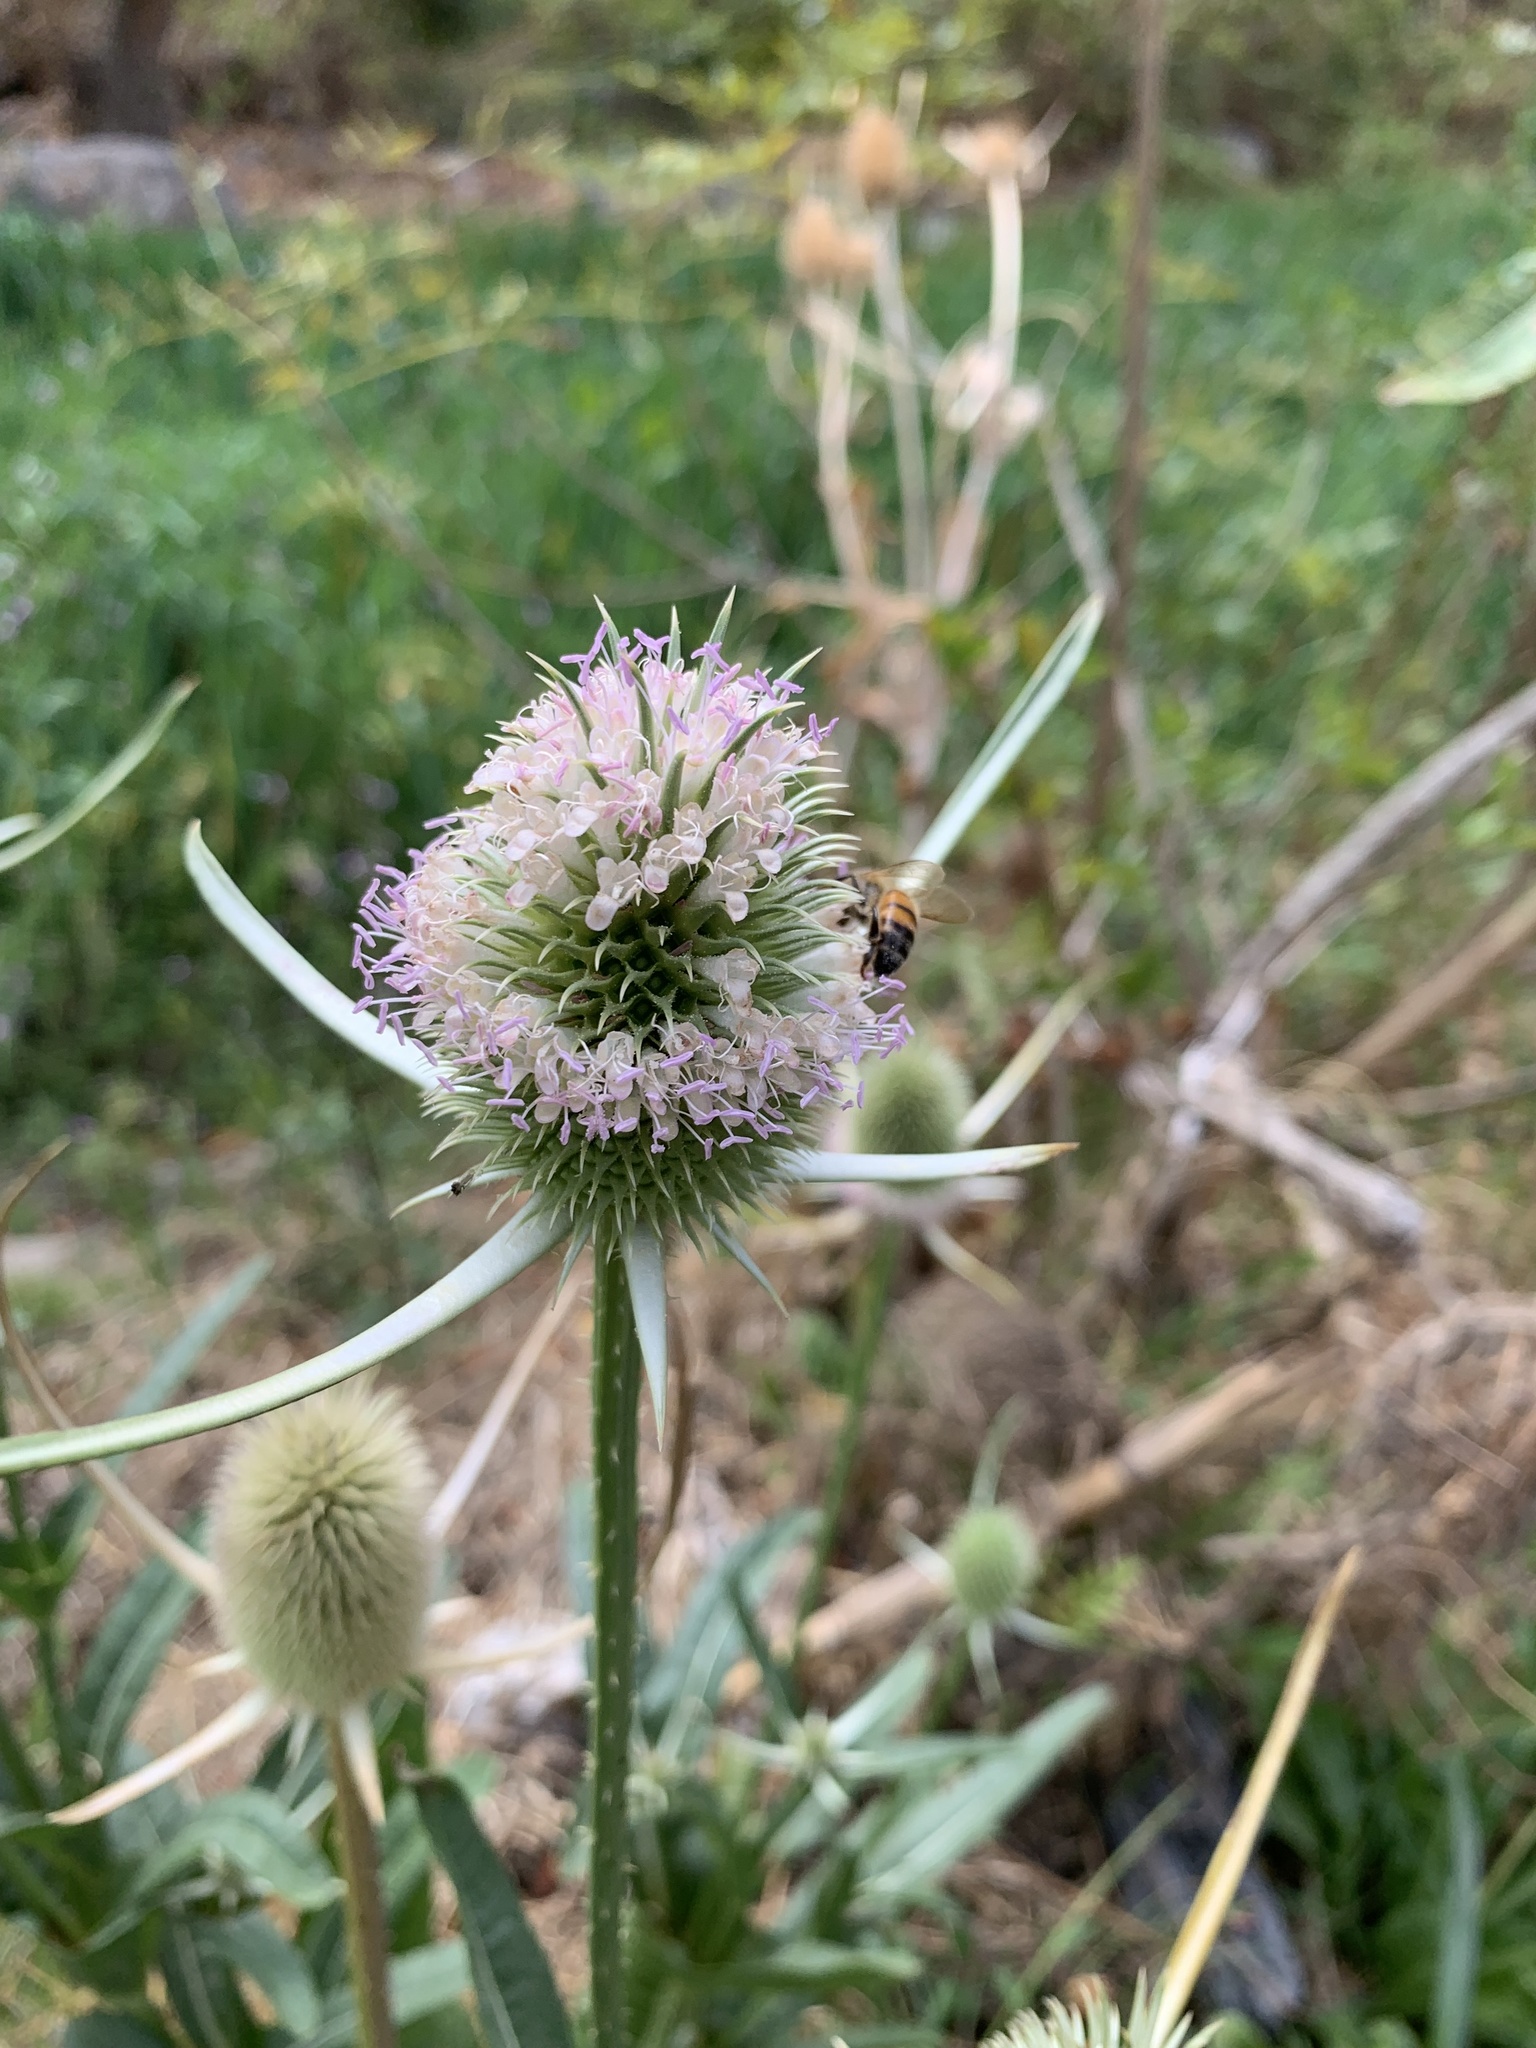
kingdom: Plantae
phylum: Tracheophyta
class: Magnoliopsida
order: Dipsacales
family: Caprifoliaceae
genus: Dipsacus
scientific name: Dipsacus sativus
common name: Fuller's teasel
